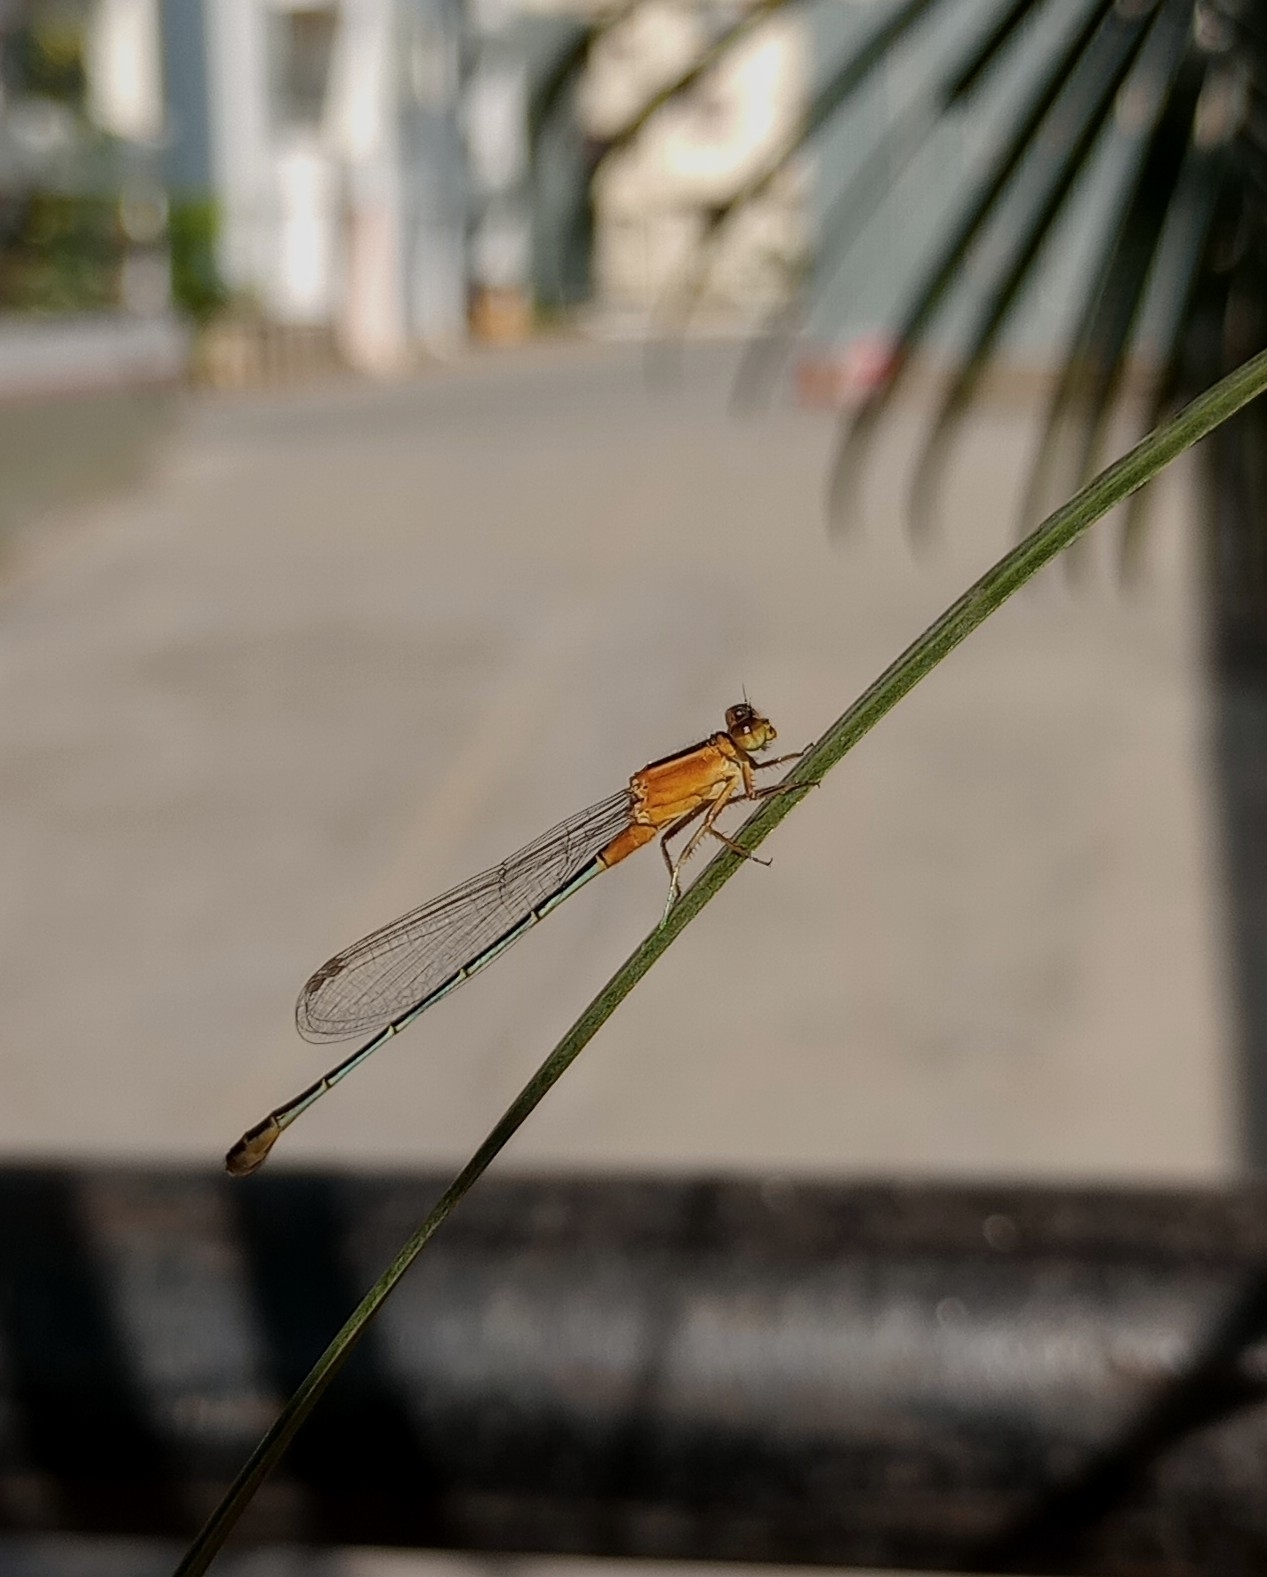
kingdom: Animalia
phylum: Arthropoda
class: Insecta
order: Odonata
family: Coenagrionidae
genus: Ischnura
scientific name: Ischnura senegalensis
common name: Tropical bluetail
